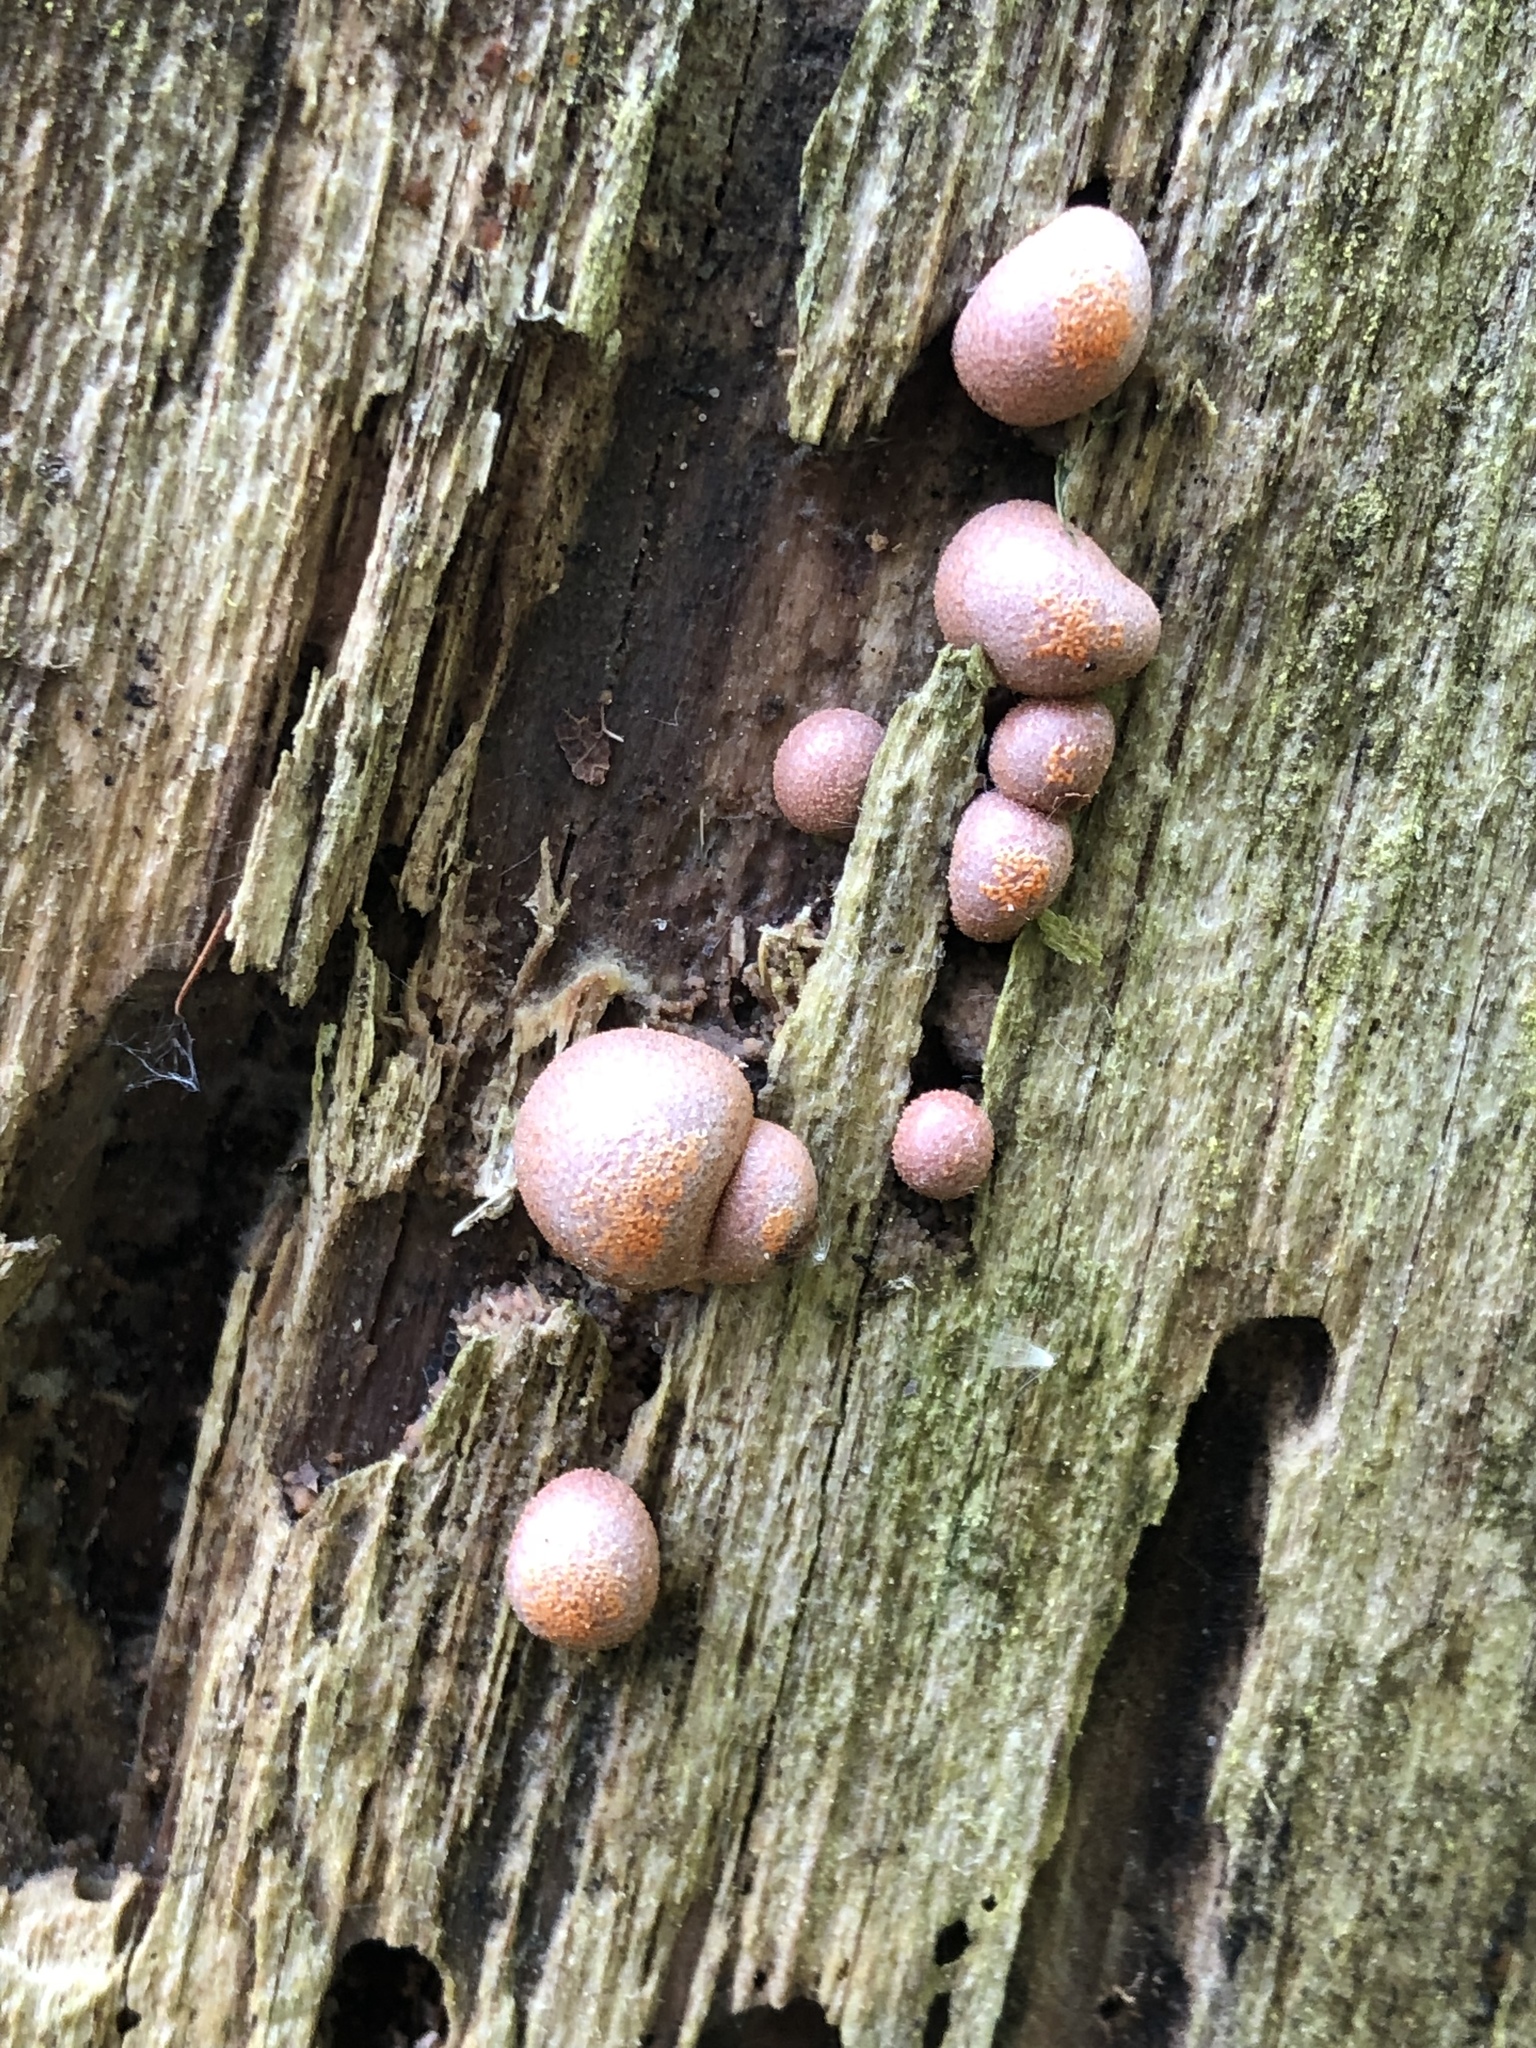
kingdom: Protozoa
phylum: Mycetozoa
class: Myxomycetes
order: Cribrariales
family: Tubiferaceae
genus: Lycogala
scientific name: Lycogala epidendrum
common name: Wolf's milk
